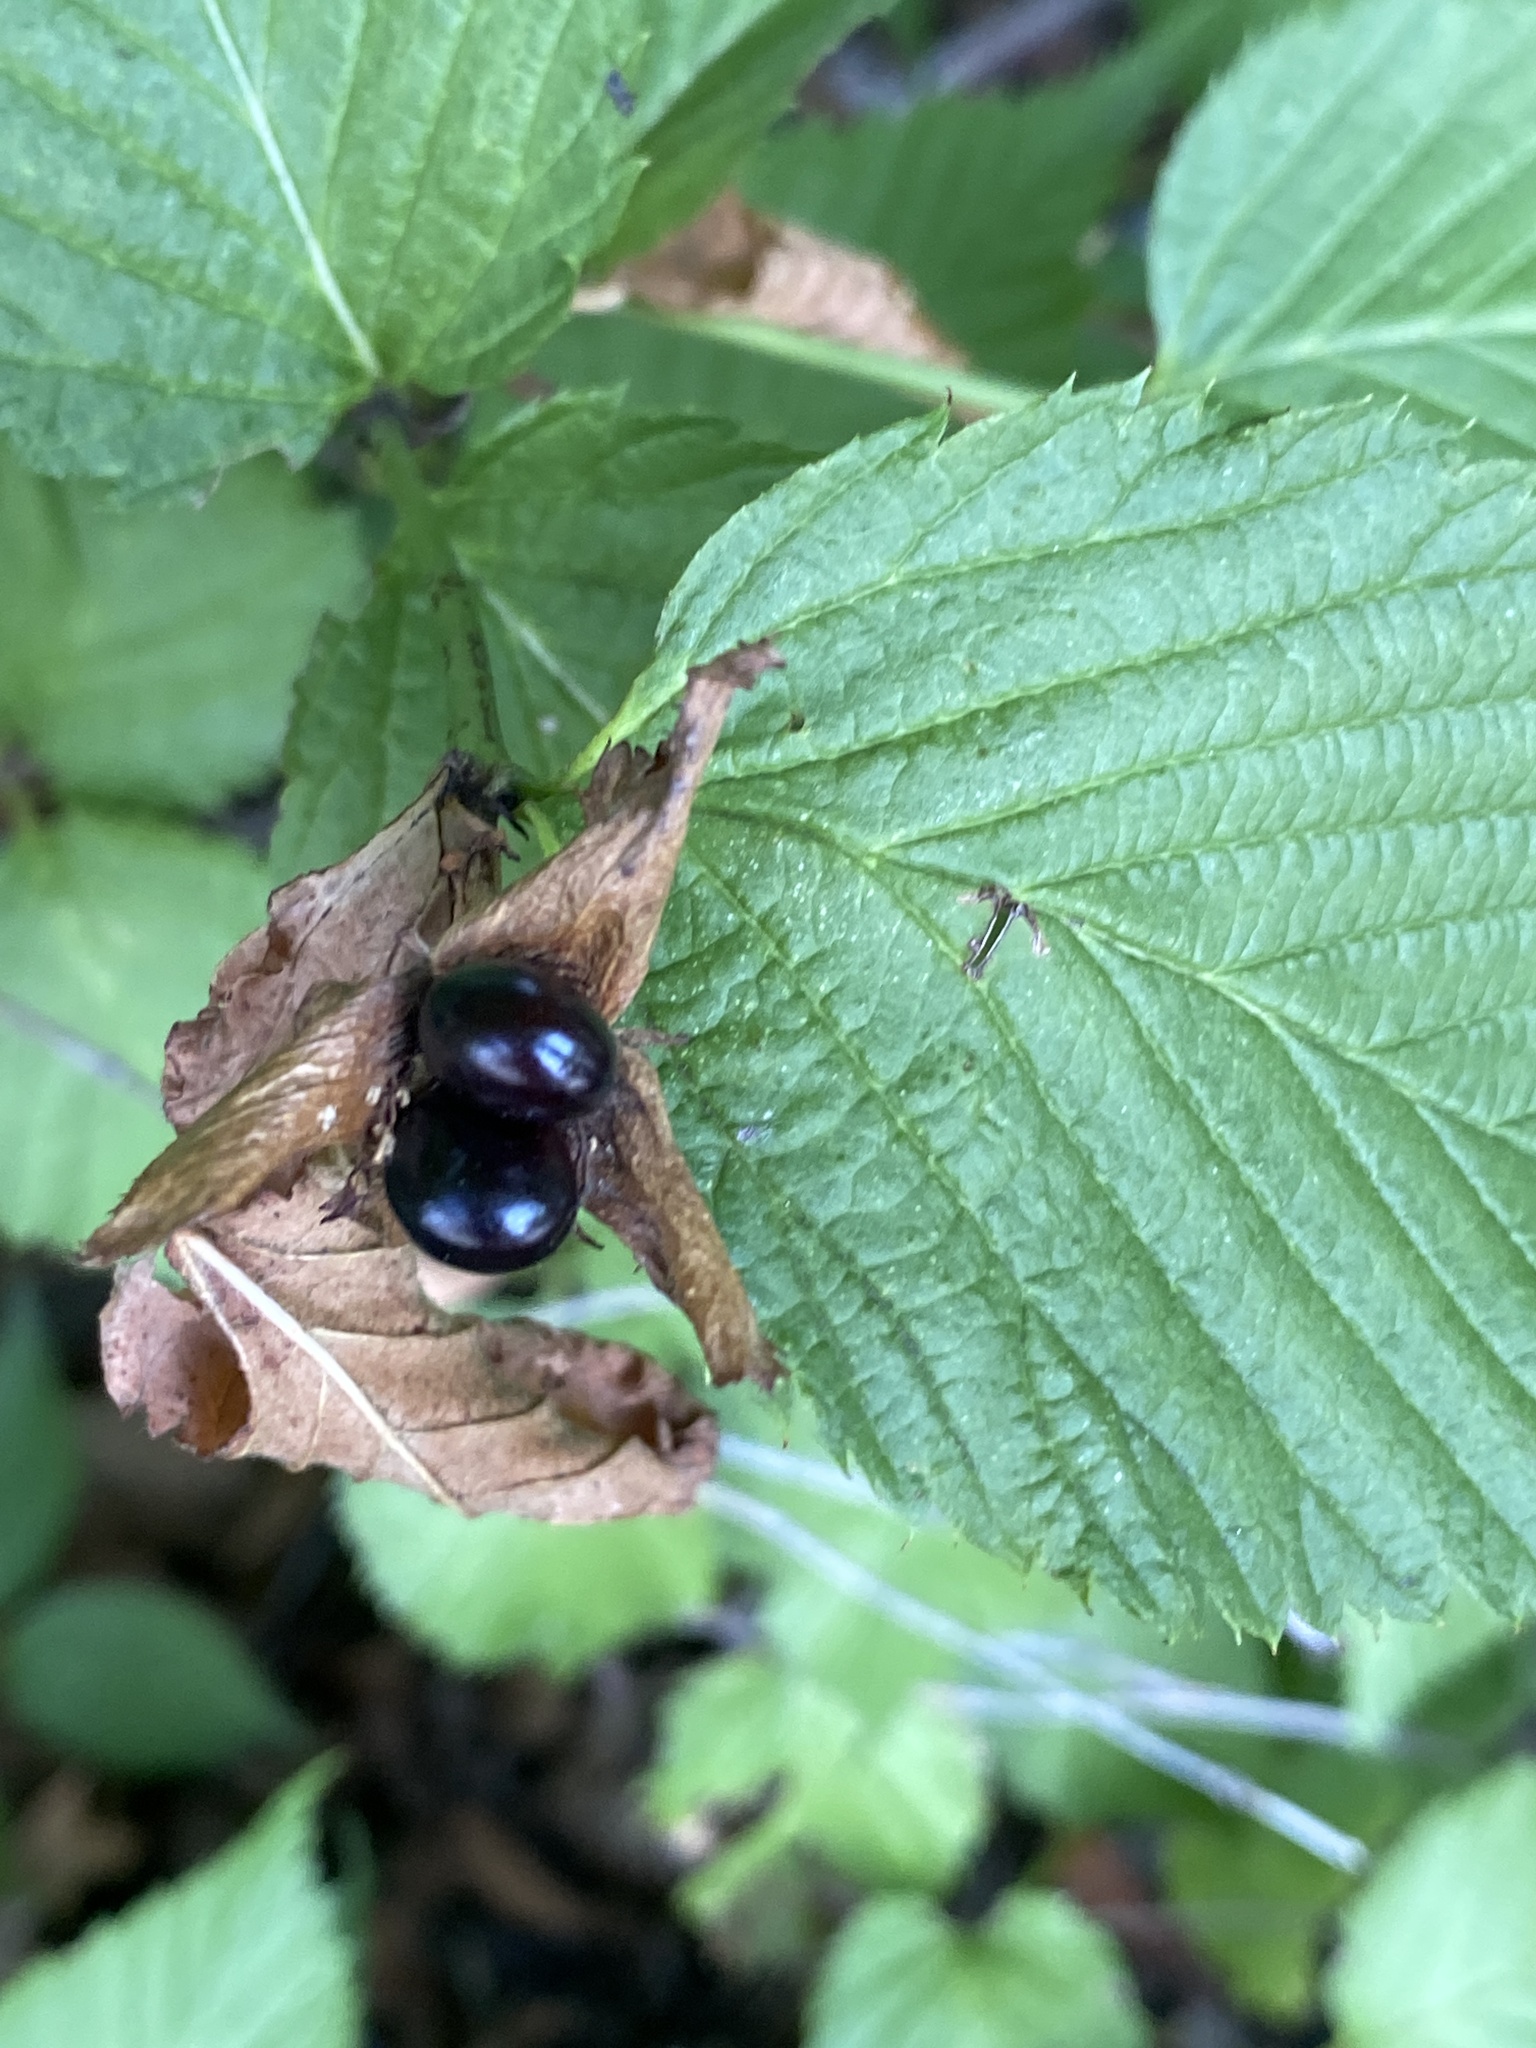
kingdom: Plantae
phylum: Tracheophyta
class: Magnoliopsida
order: Rosales
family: Rosaceae
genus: Rhodotypos
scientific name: Rhodotypos scandens
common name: Jetbead
